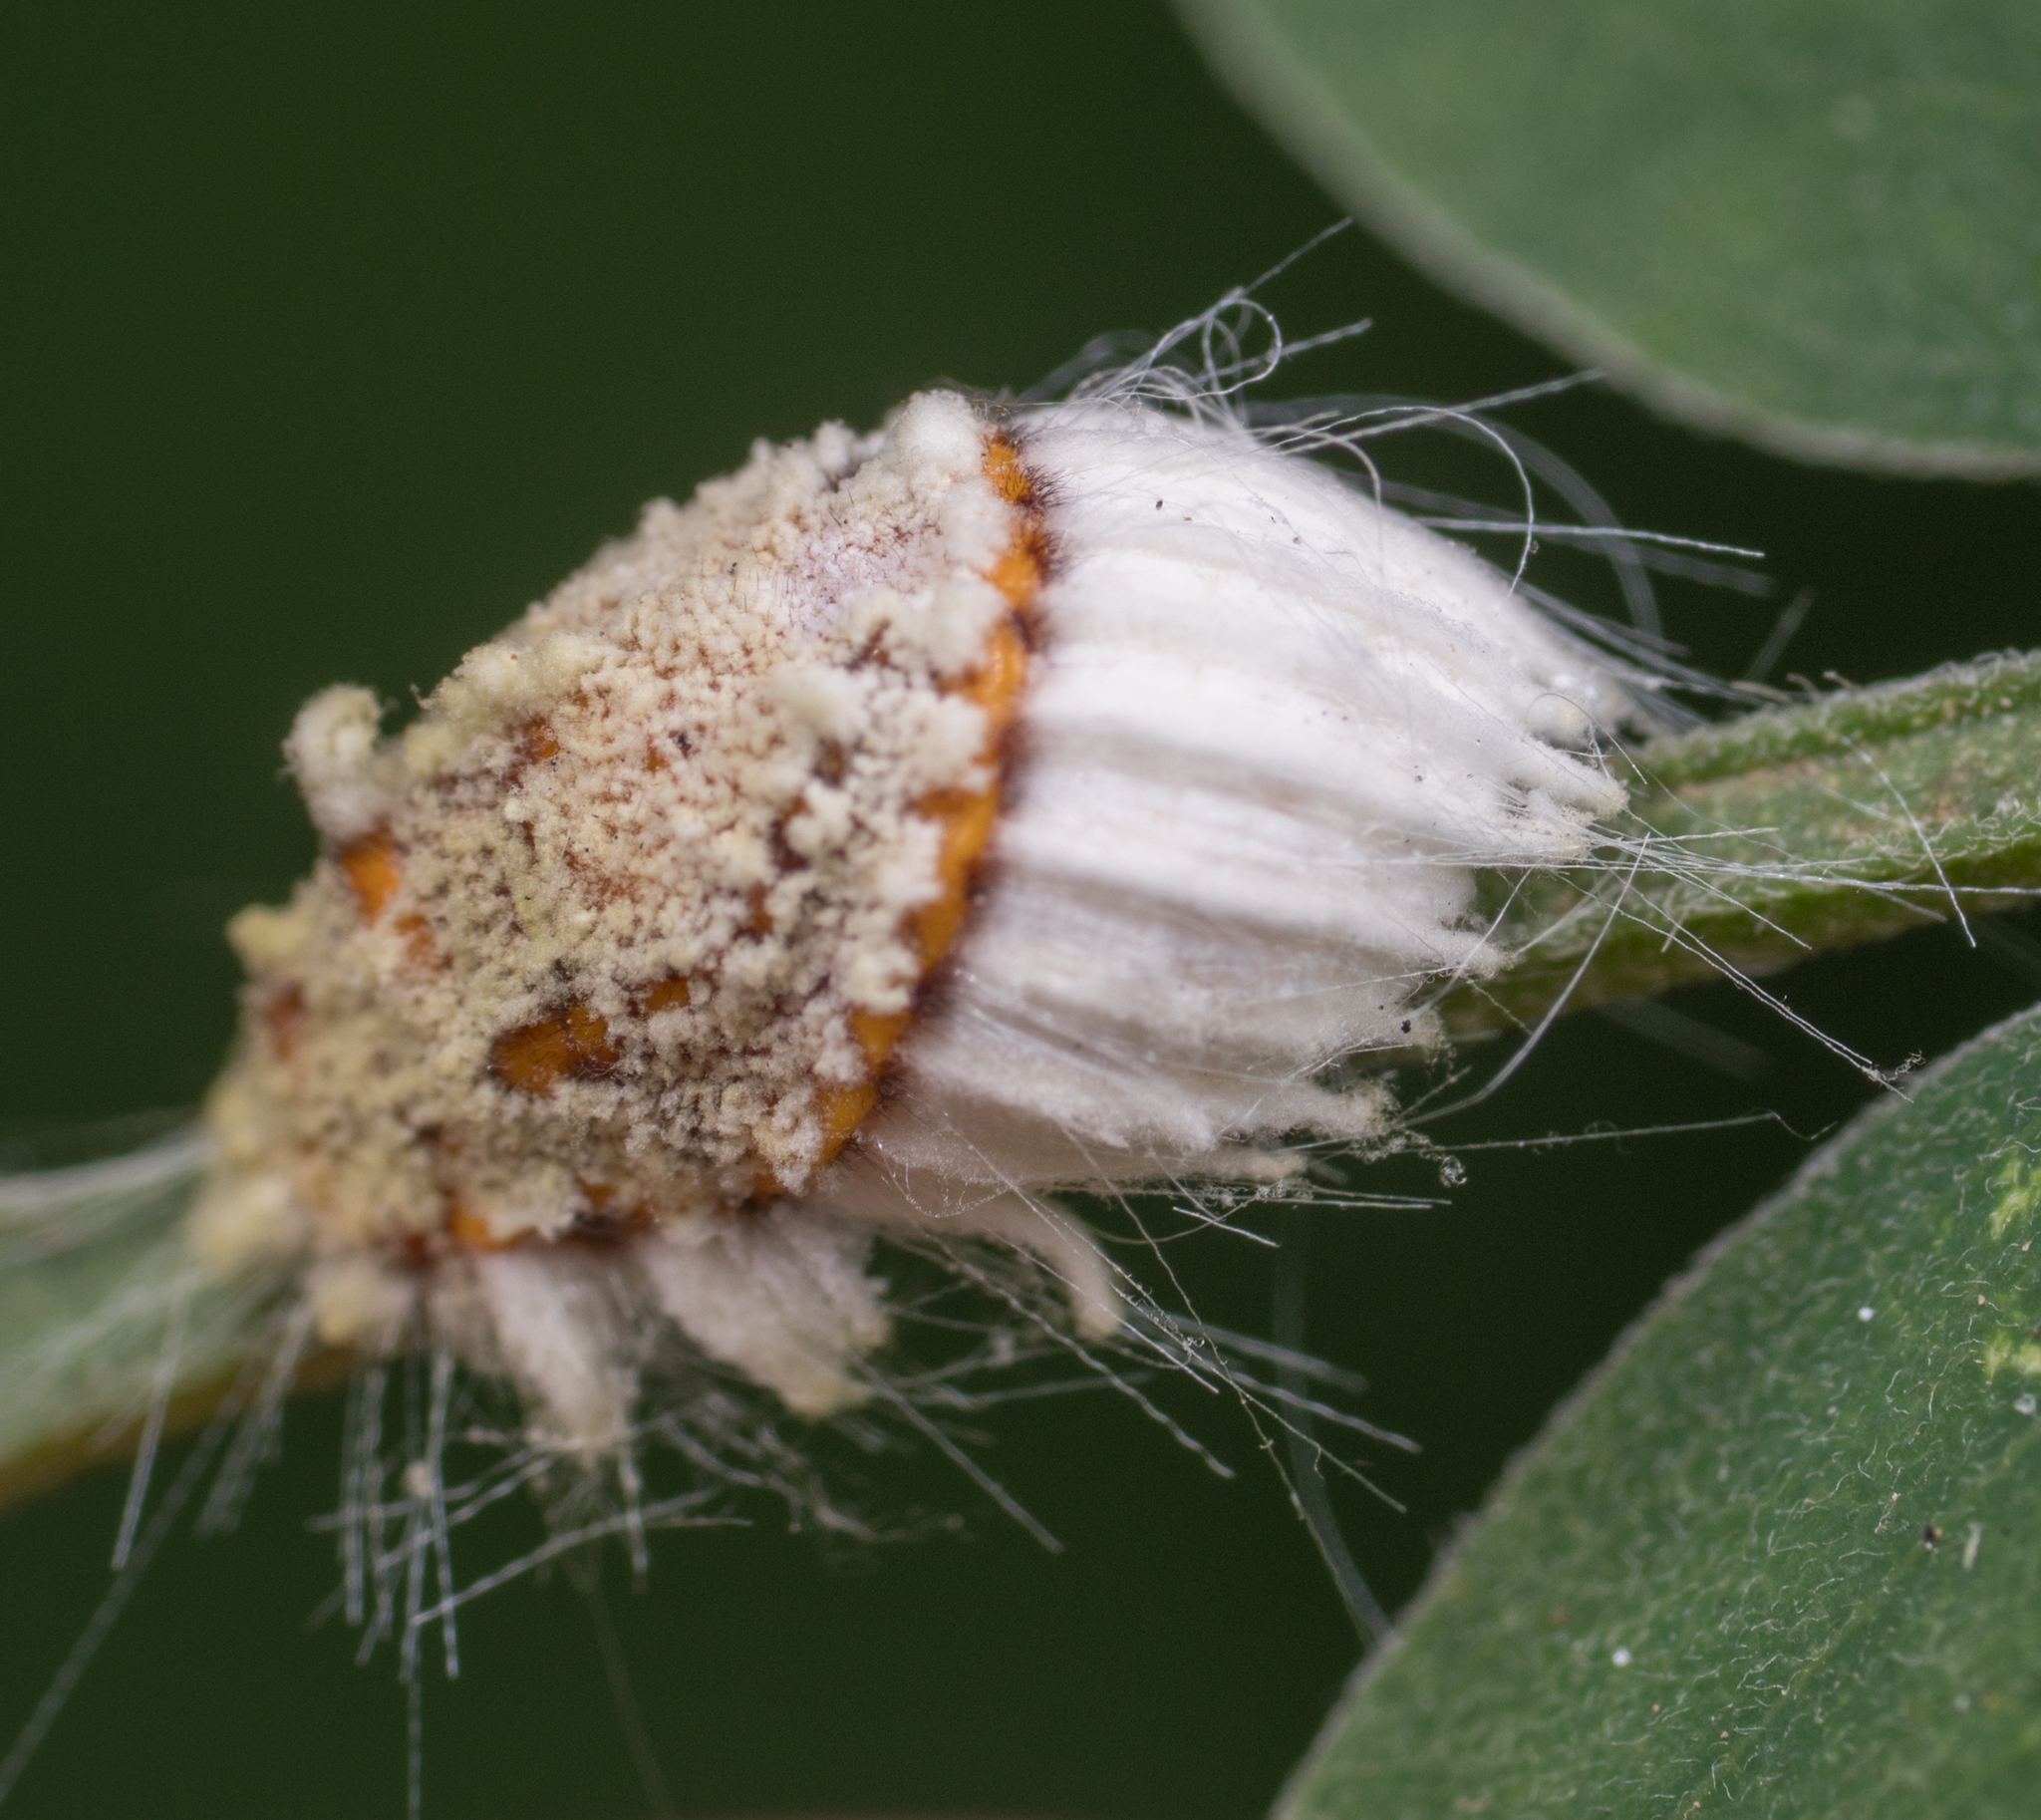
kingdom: Animalia
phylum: Arthropoda
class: Insecta
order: Hemiptera
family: Margarodidae
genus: Icerya
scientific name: Icerya purchasi
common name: Cottony cushion scale
